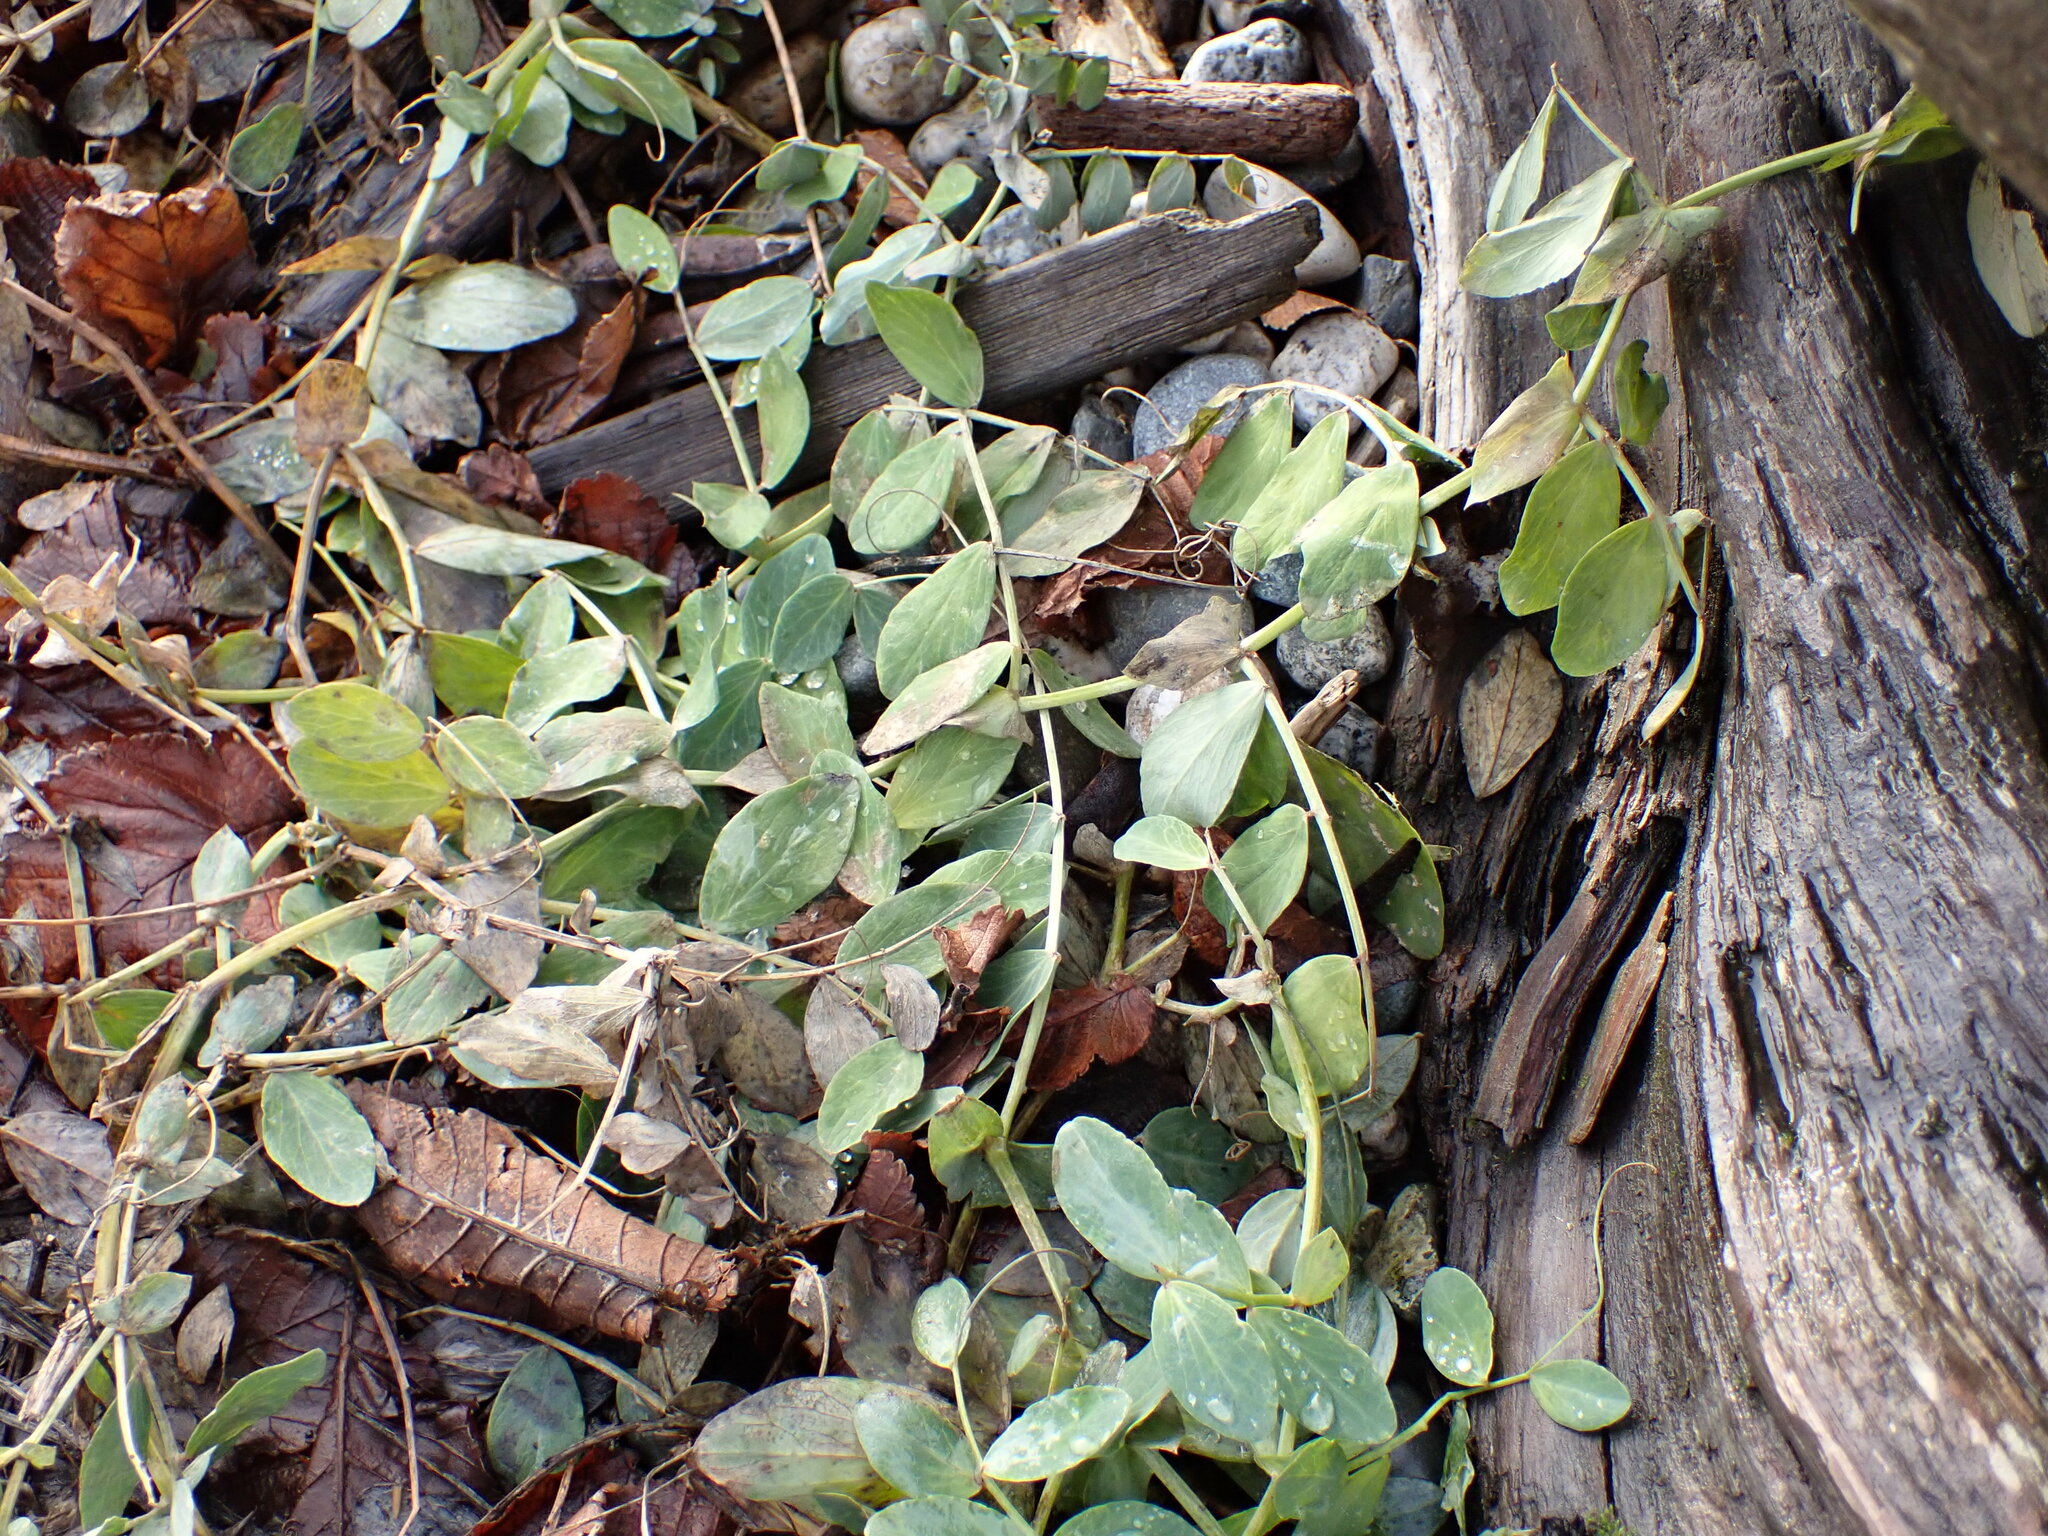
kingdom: Plantae
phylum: Tracheophyta
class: Magnoliopsida
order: Fabales
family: Fabaceae
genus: Lathyrus
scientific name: Lathyrus japonicus
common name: Sea pea
